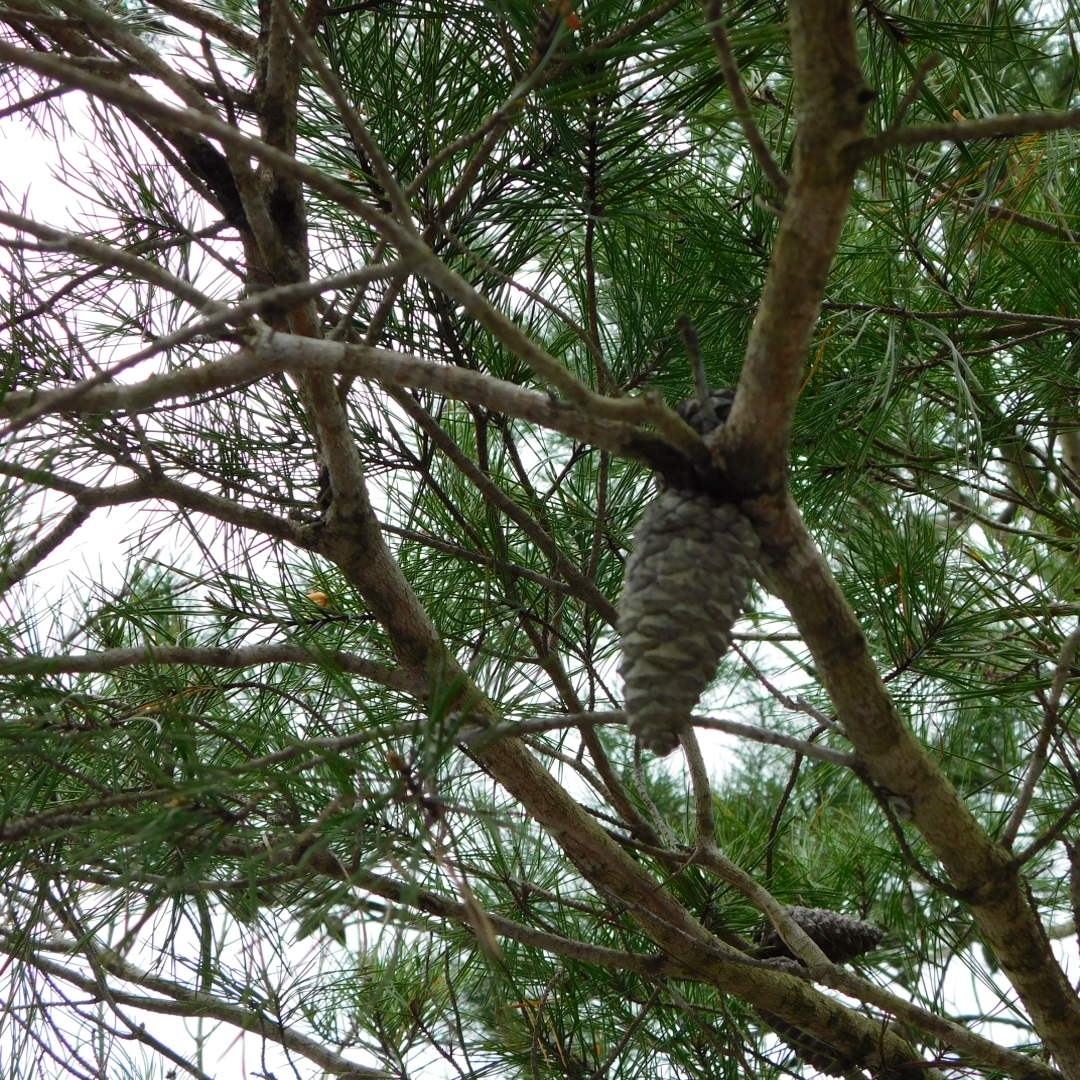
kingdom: Plantae
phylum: Tracheophyta
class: Pinopsida
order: Pinales
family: Pinaceae
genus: Pinus
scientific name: Pinus clausa
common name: Sand pine
